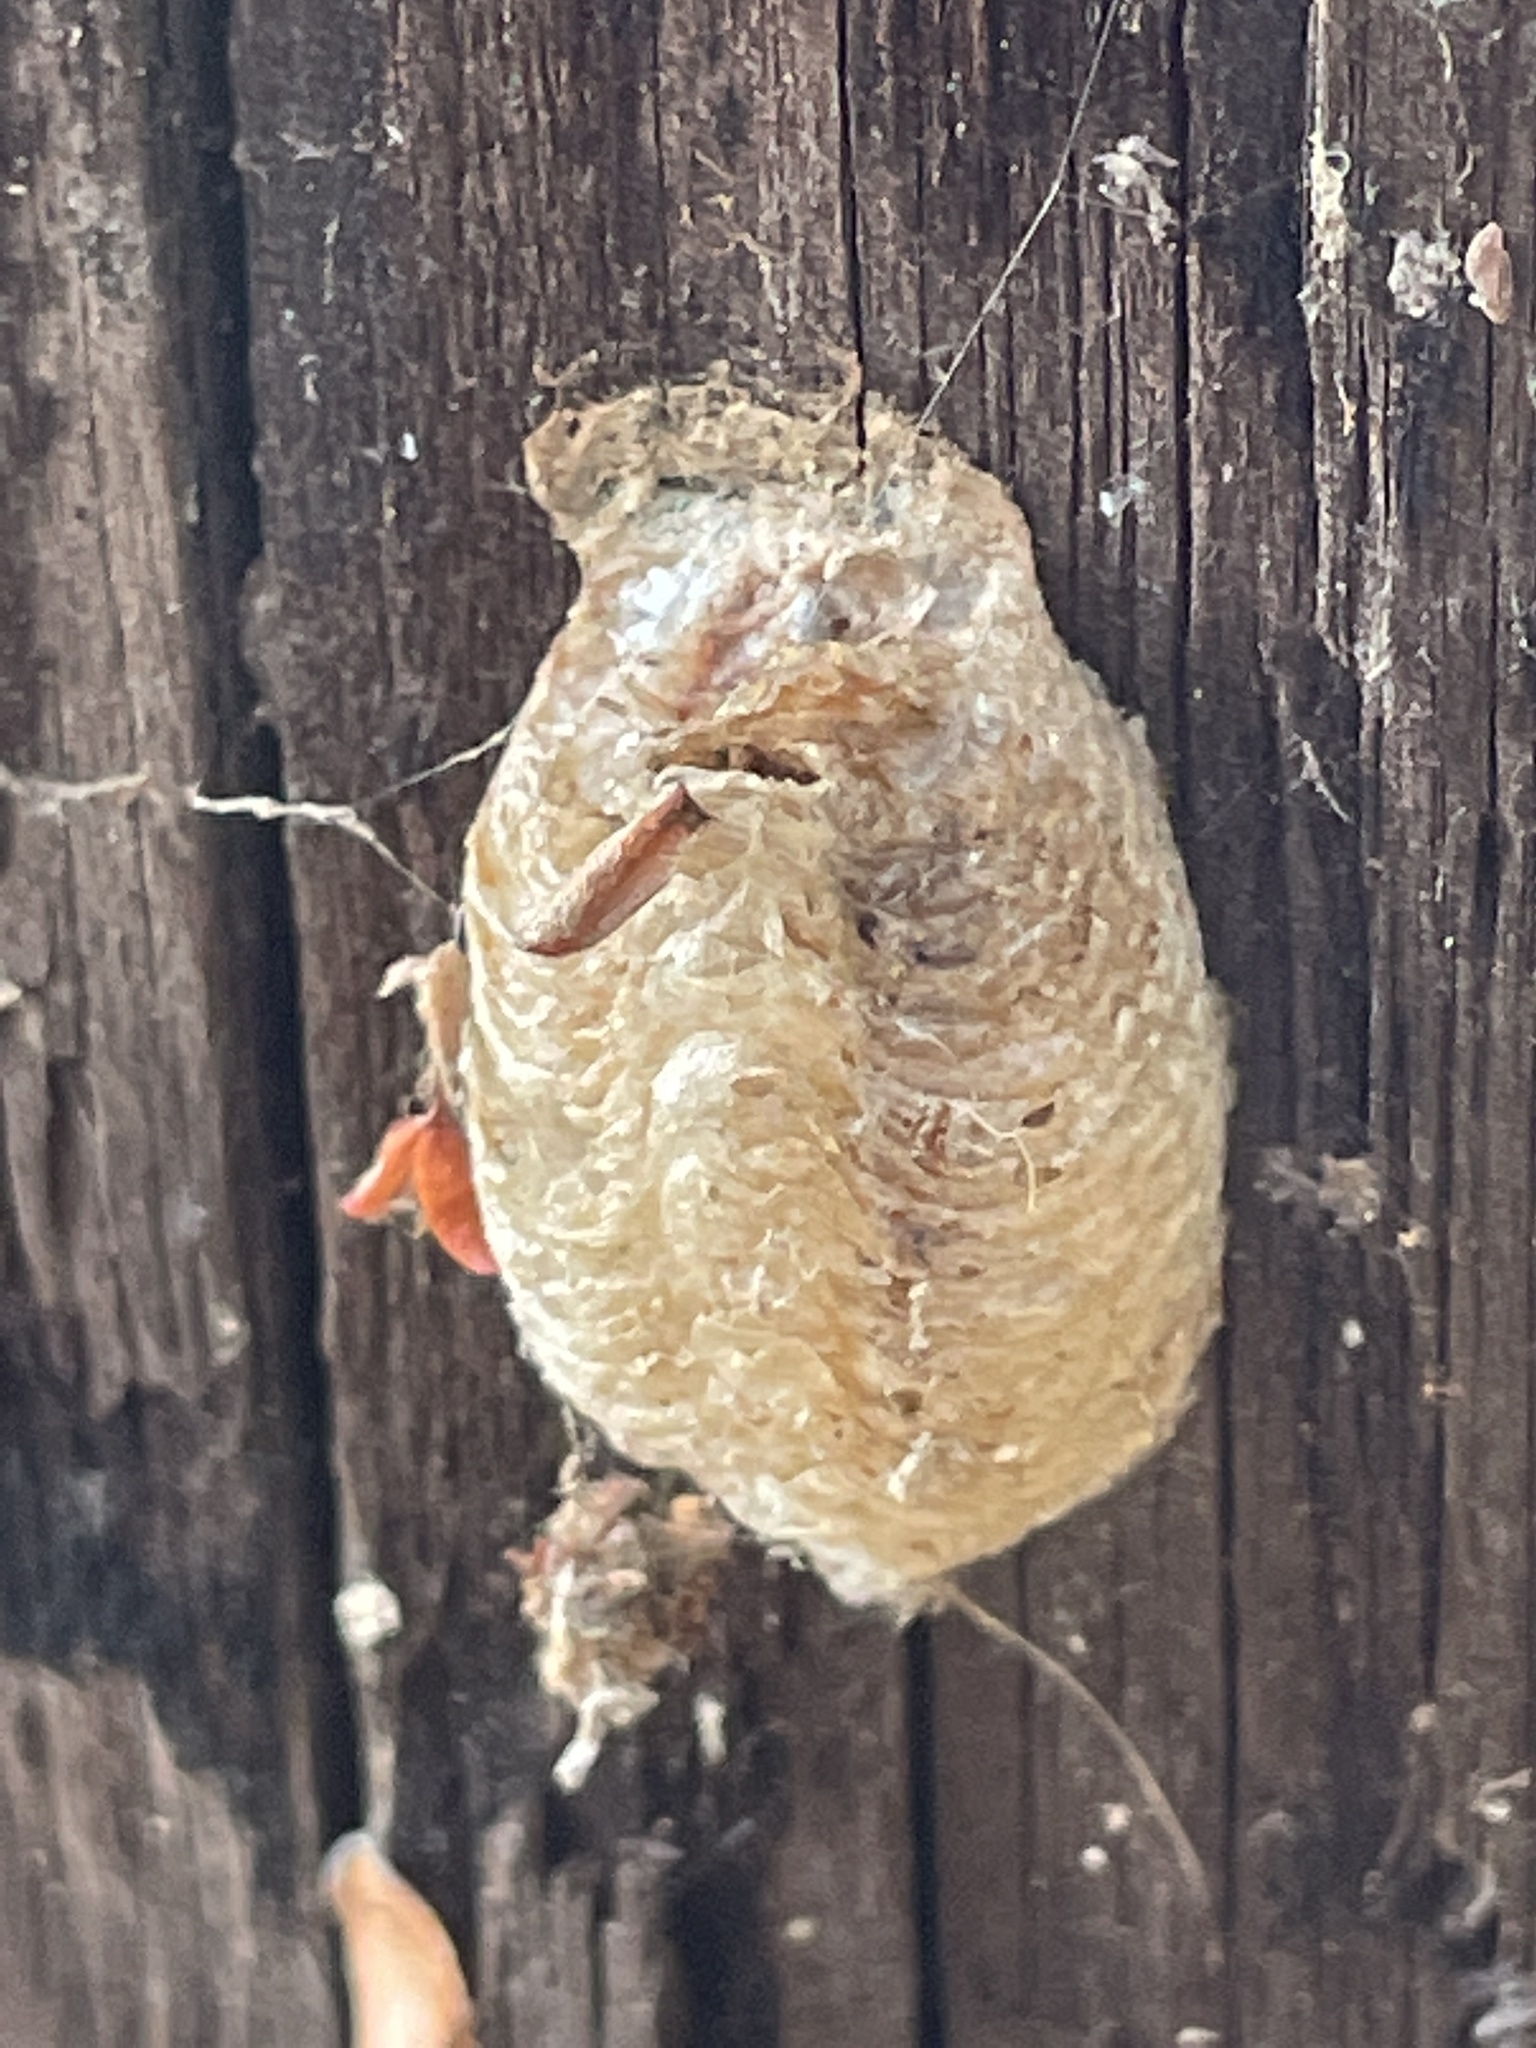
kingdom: Animalia
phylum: Arthropoda
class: Insecta
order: Mantodea
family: Mantidae
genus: Mantis
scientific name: Mantis religiosa
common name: Praying mantis
